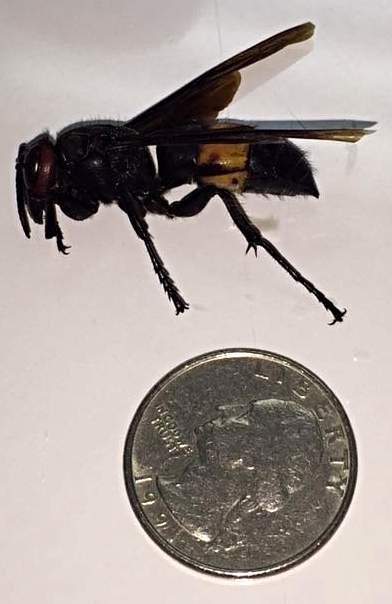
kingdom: Animalia
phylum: Arthropoda
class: Insecta
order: Hymenoptera
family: Vespidae
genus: Vespa
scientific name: Vespa tropica
